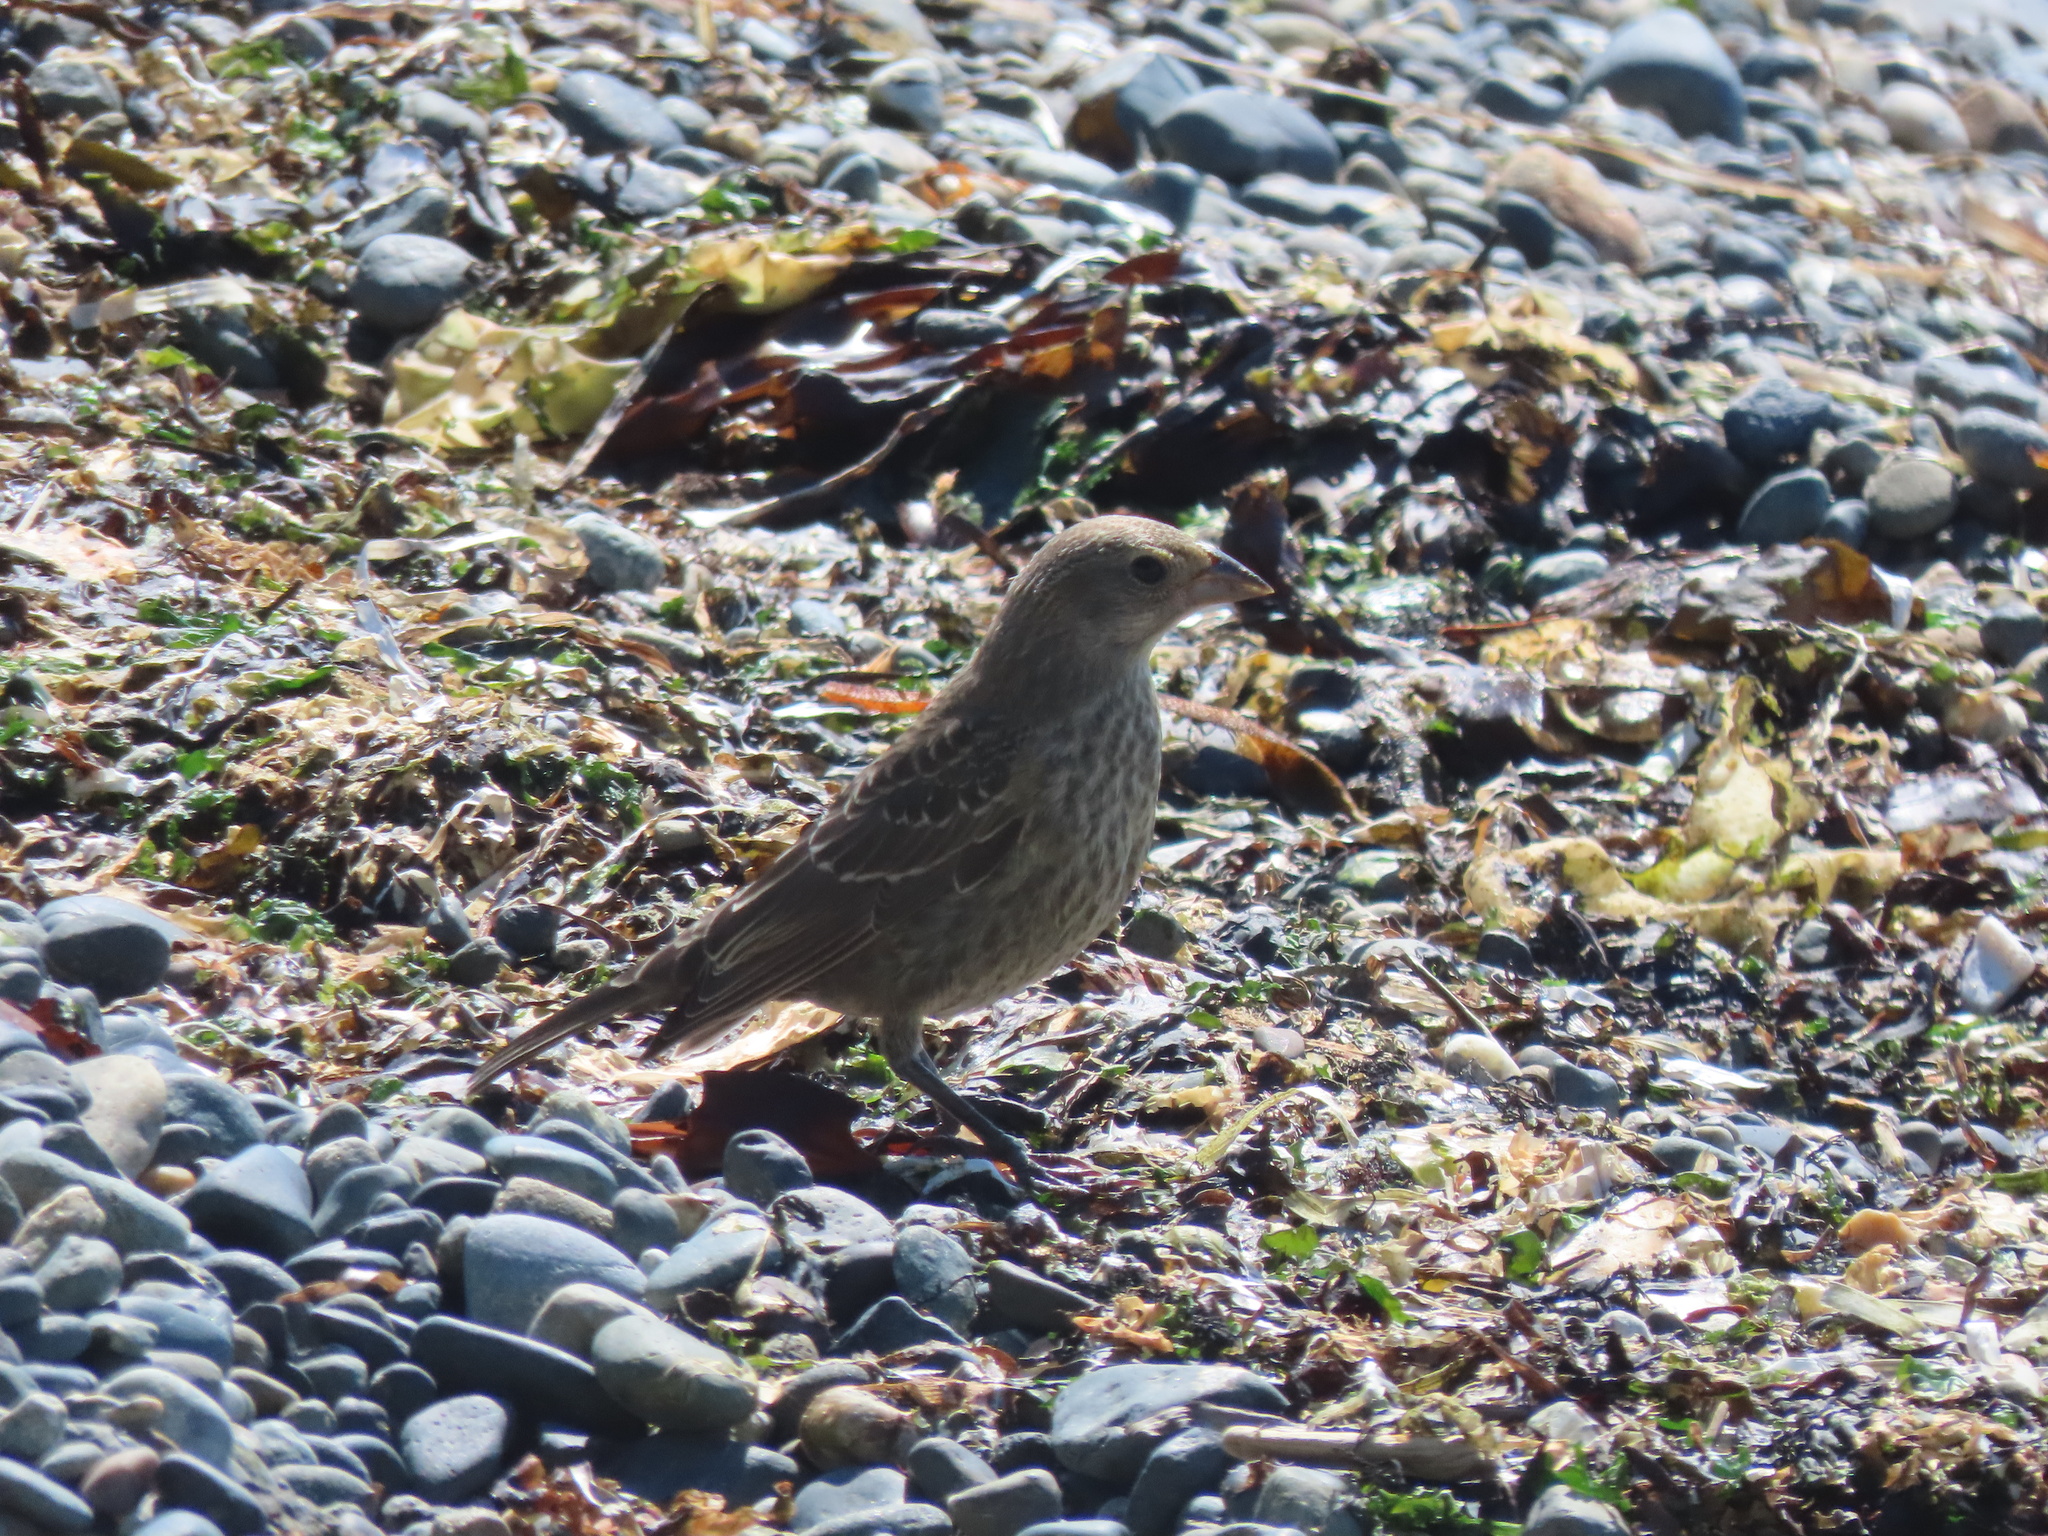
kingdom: Animalia
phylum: Chordata
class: Aves
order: Passeriformes
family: Icteridae
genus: Molothrus
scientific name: Molothrus ater
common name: Brown-headed cowbird
